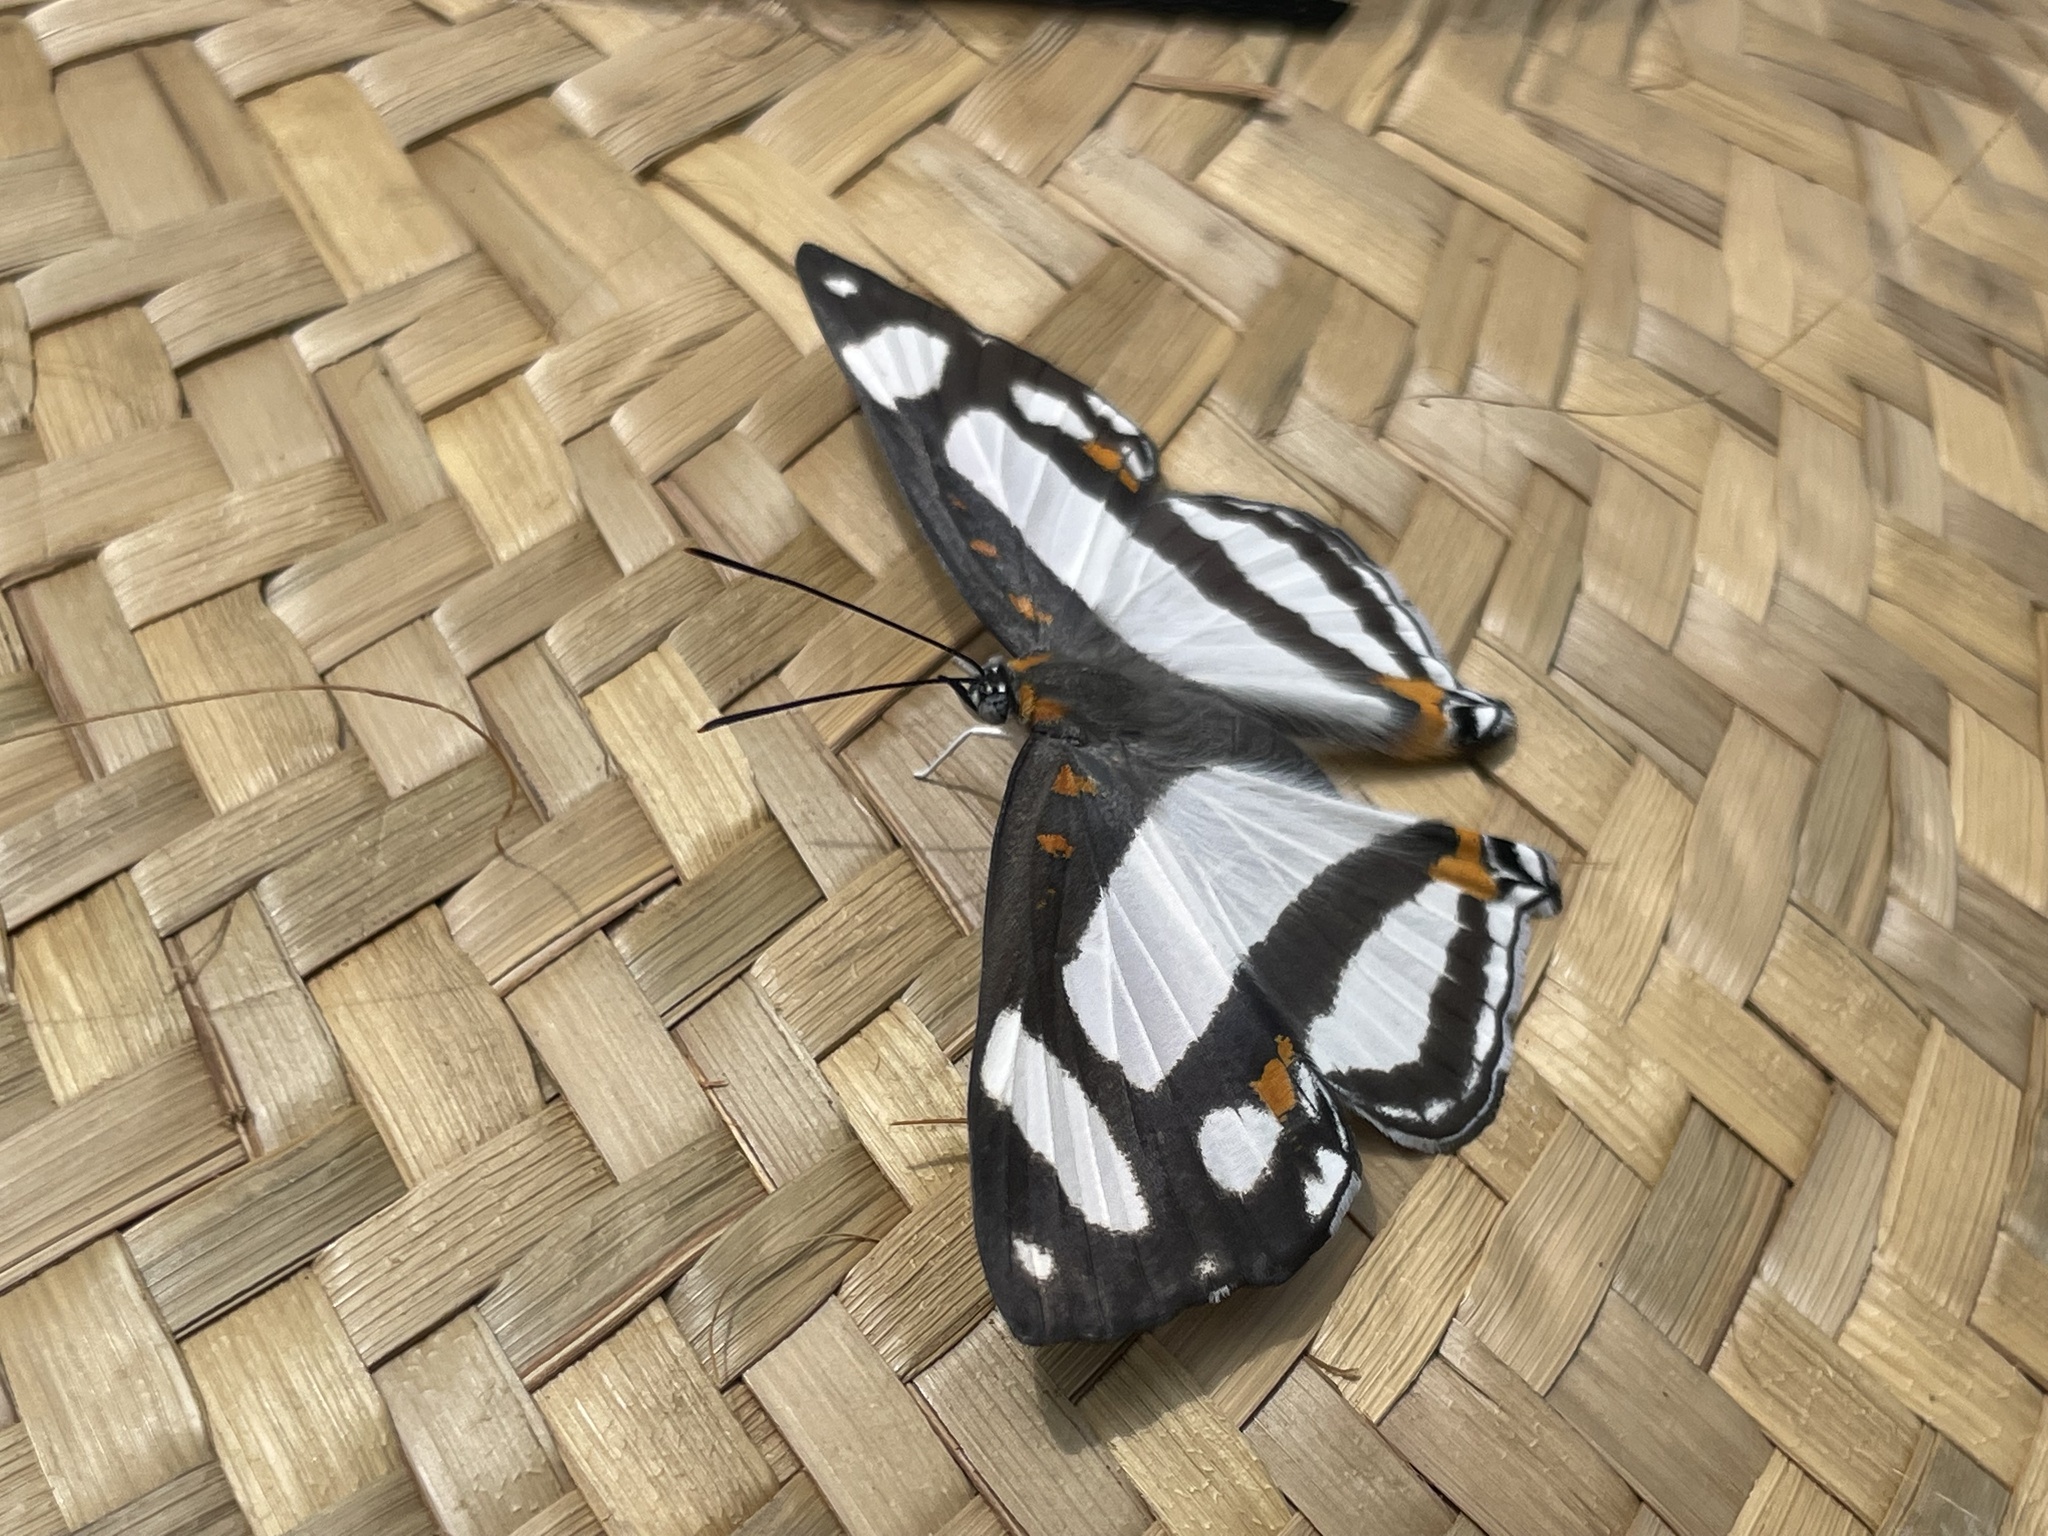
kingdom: Animalia
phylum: Arthropoda
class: Insecta
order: Lepidoptera
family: Riodinidae
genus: Thisbe
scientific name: Thisbe lycorias
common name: Banner metalmark
